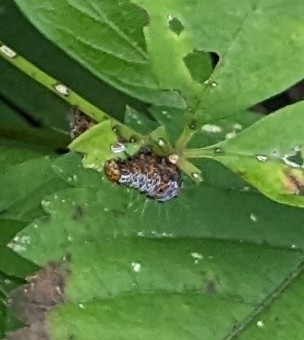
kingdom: Animalia
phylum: Arthropoda
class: Insecta
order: Lepidoptera
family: Noctuidae
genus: Alypia
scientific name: Alypia octomaculata
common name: Eight-spotted forester
